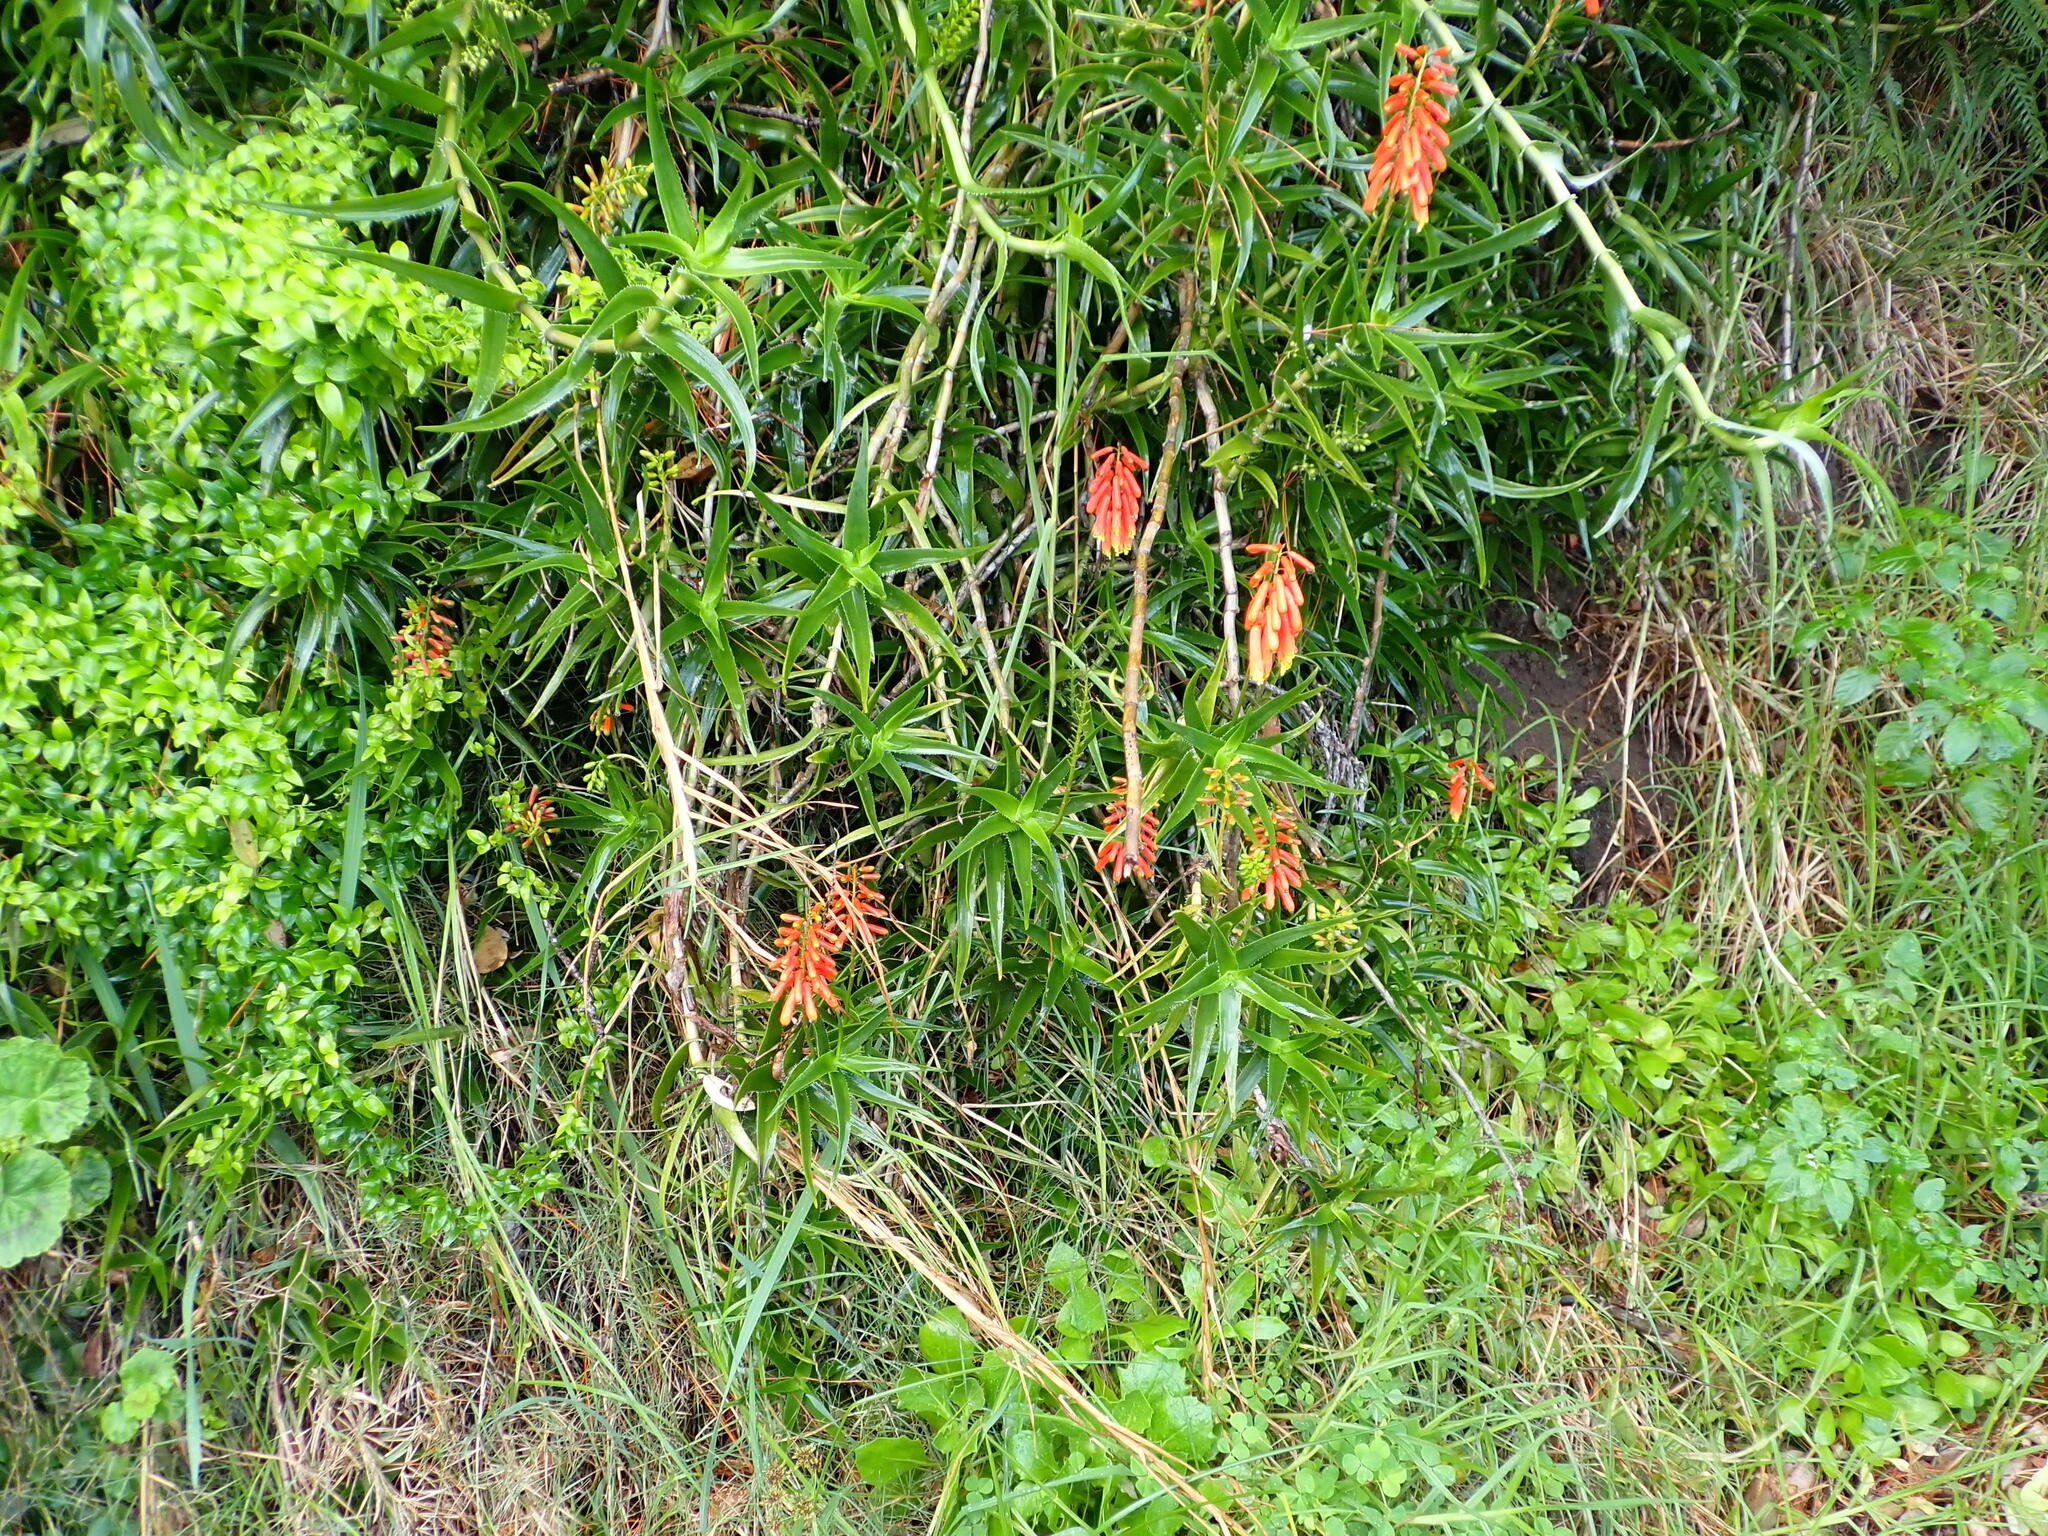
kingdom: Plantae
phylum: Tracheophyta
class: Liliopsida
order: Asparagales
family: Asphodelaceae
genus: Aloiampelos
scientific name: Aloiampelos ciliaris
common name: Climbing aloe
